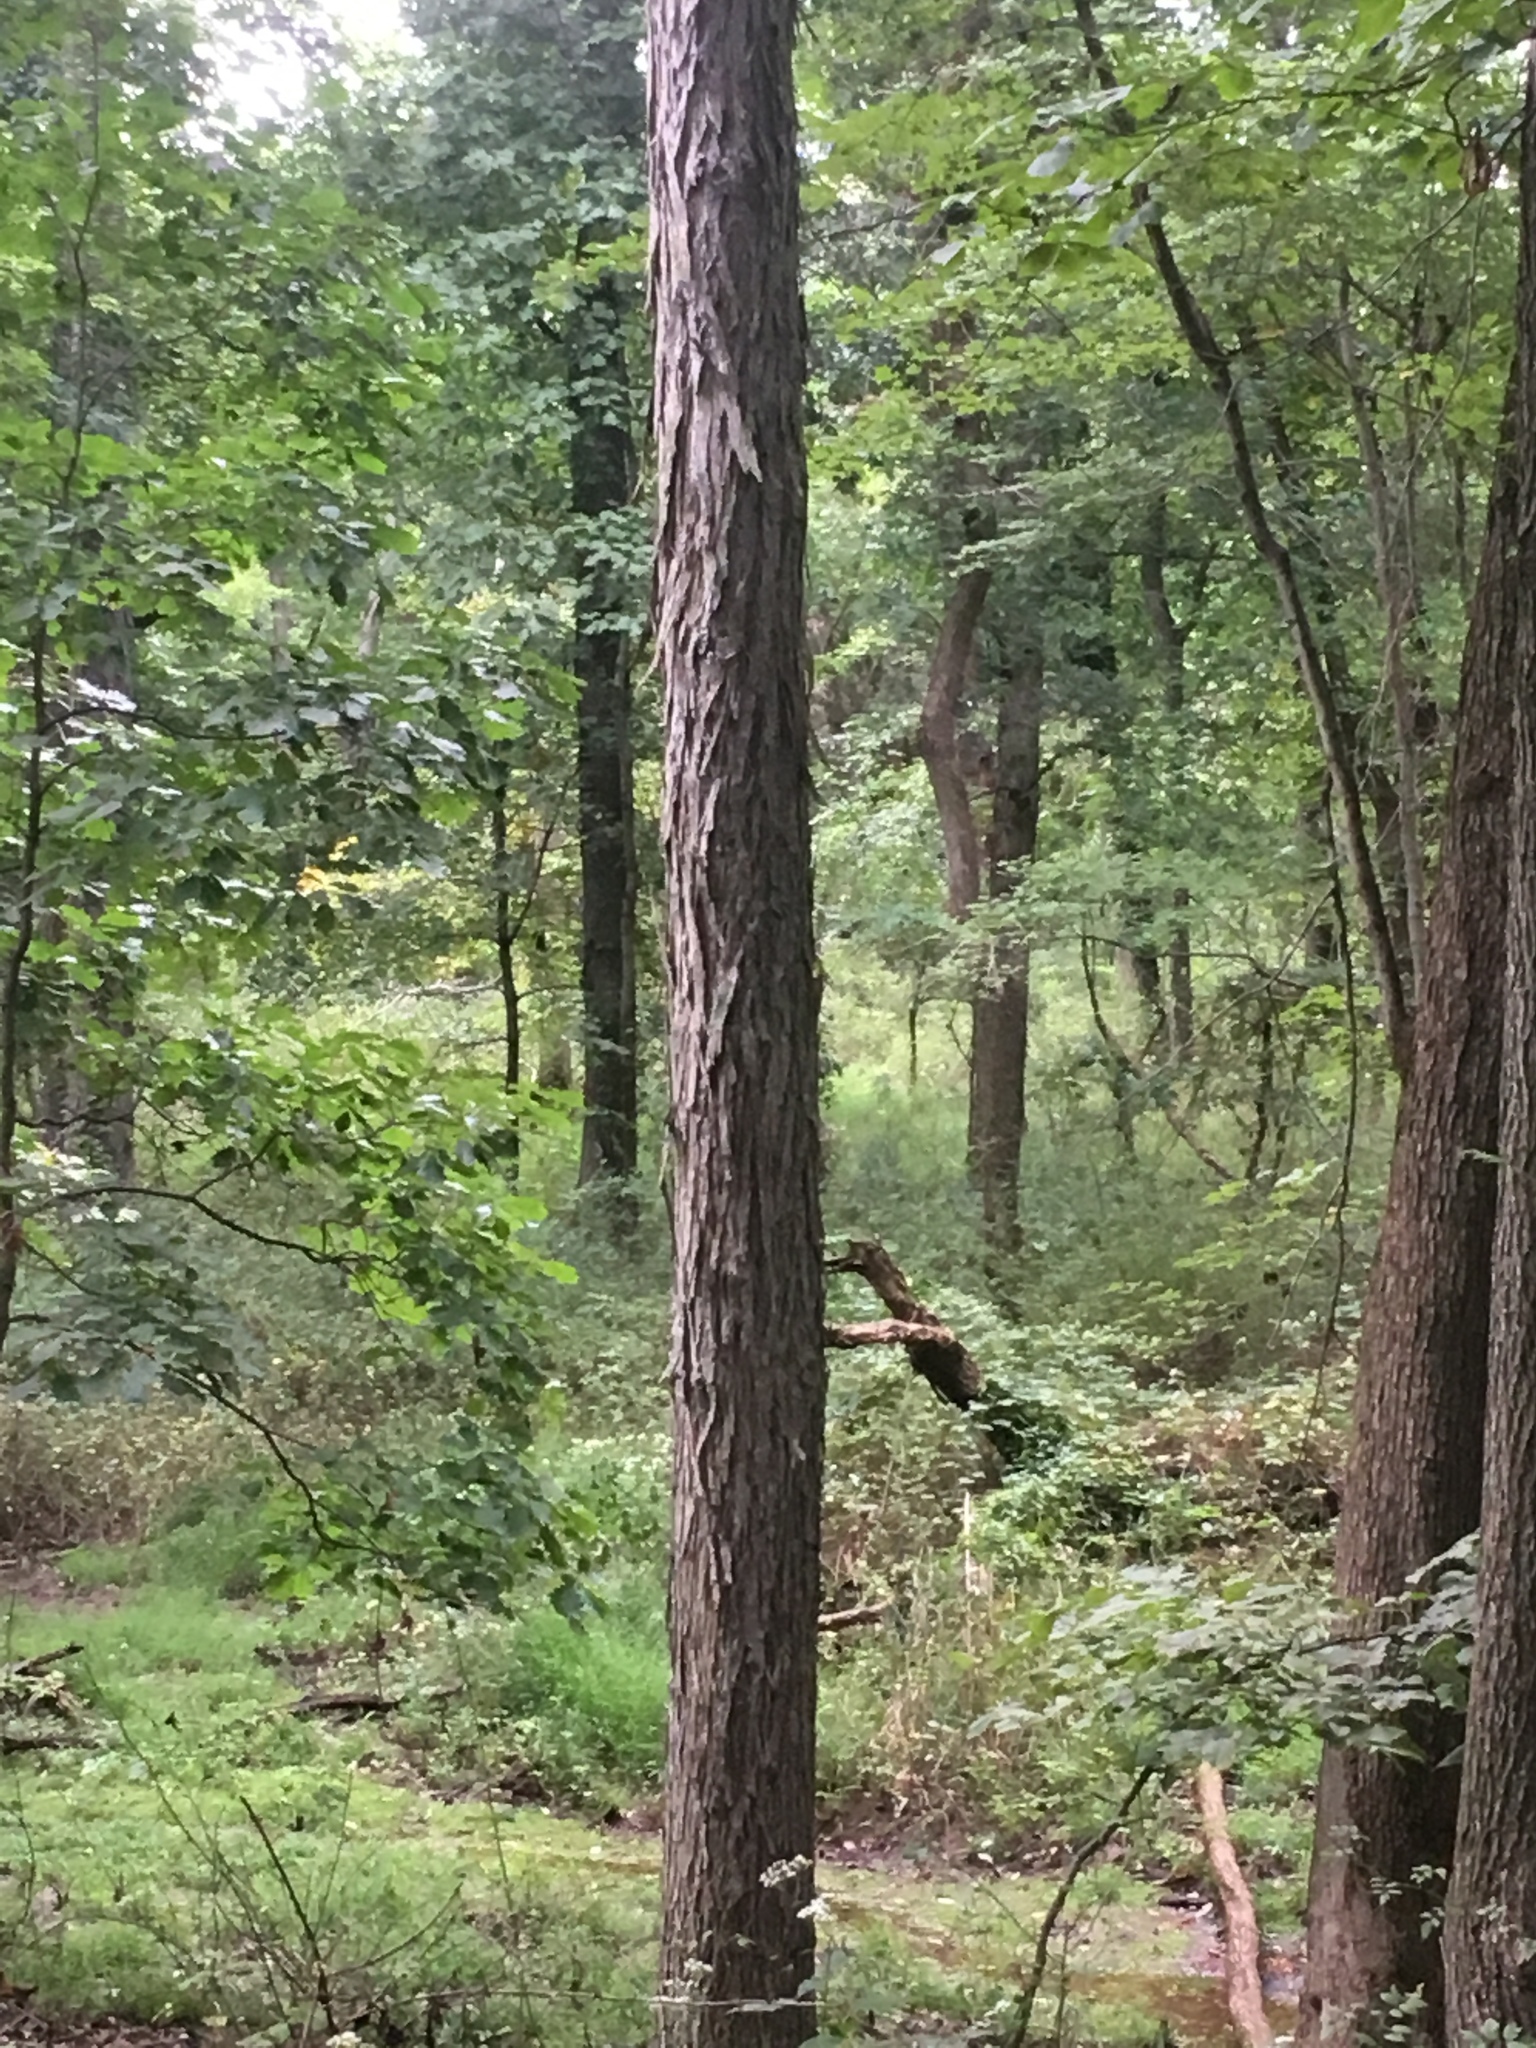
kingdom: Plantae
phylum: Tracheophyta
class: Magnoliopsida
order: Fagales
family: Juglandaceae
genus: Carya
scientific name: Carya ovata
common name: Shagbark hickory
